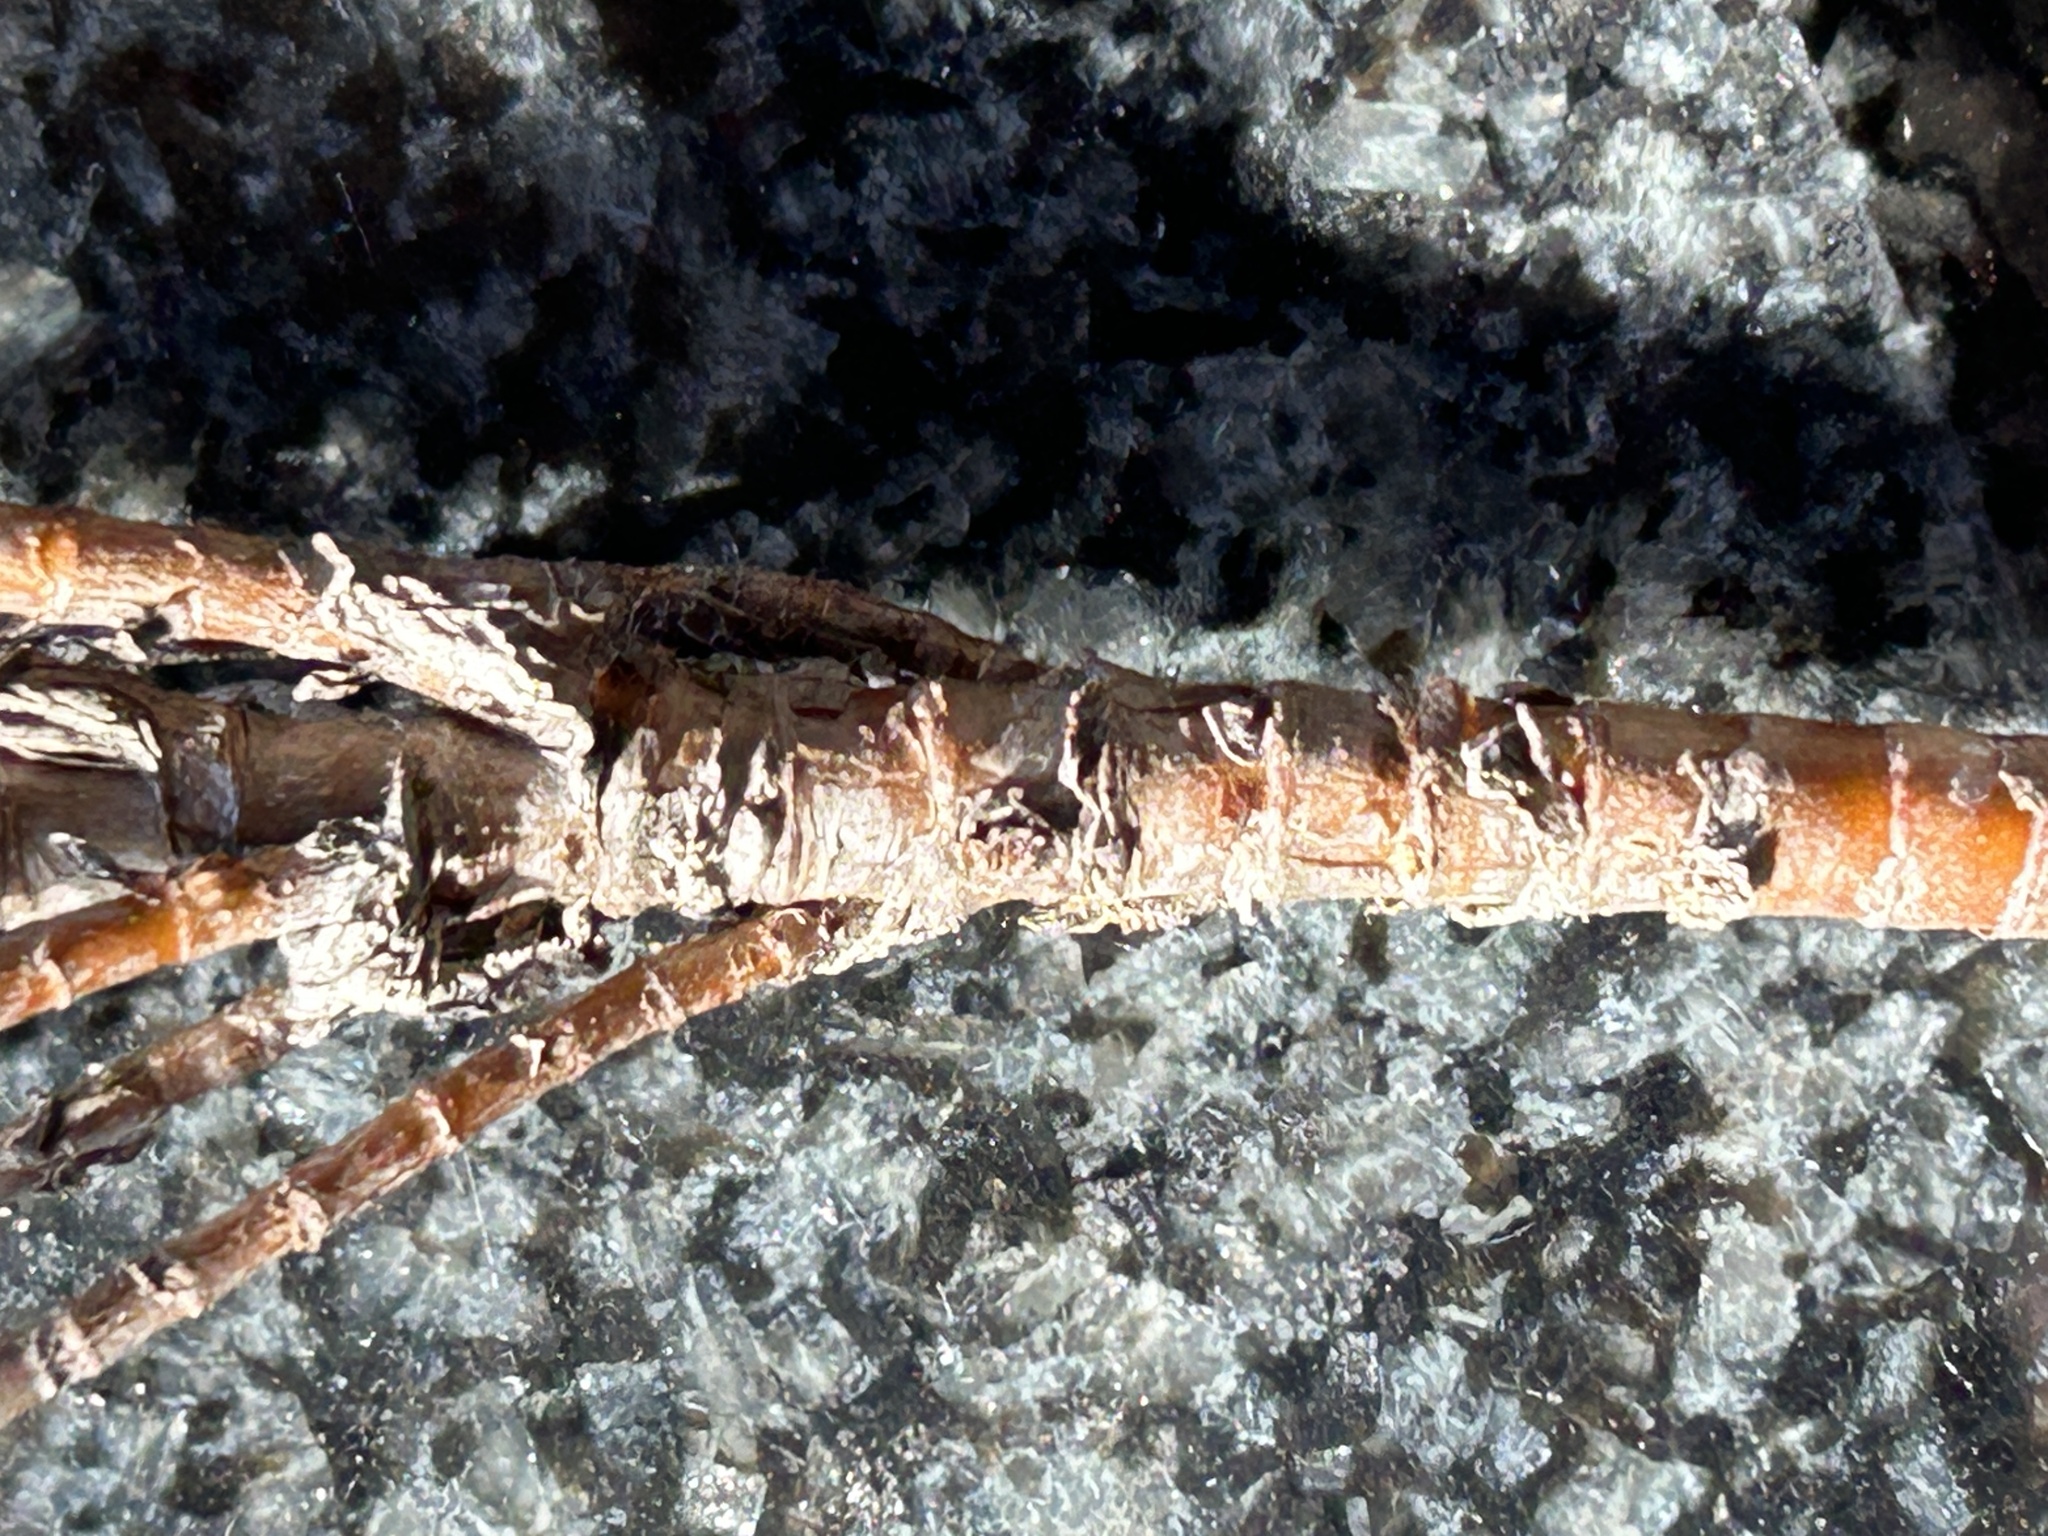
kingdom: Plantae
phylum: Tracheophyta
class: Magnoliopsida
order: Saxifragales
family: Crassulaceae
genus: Crassula
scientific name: Crassula subulata
